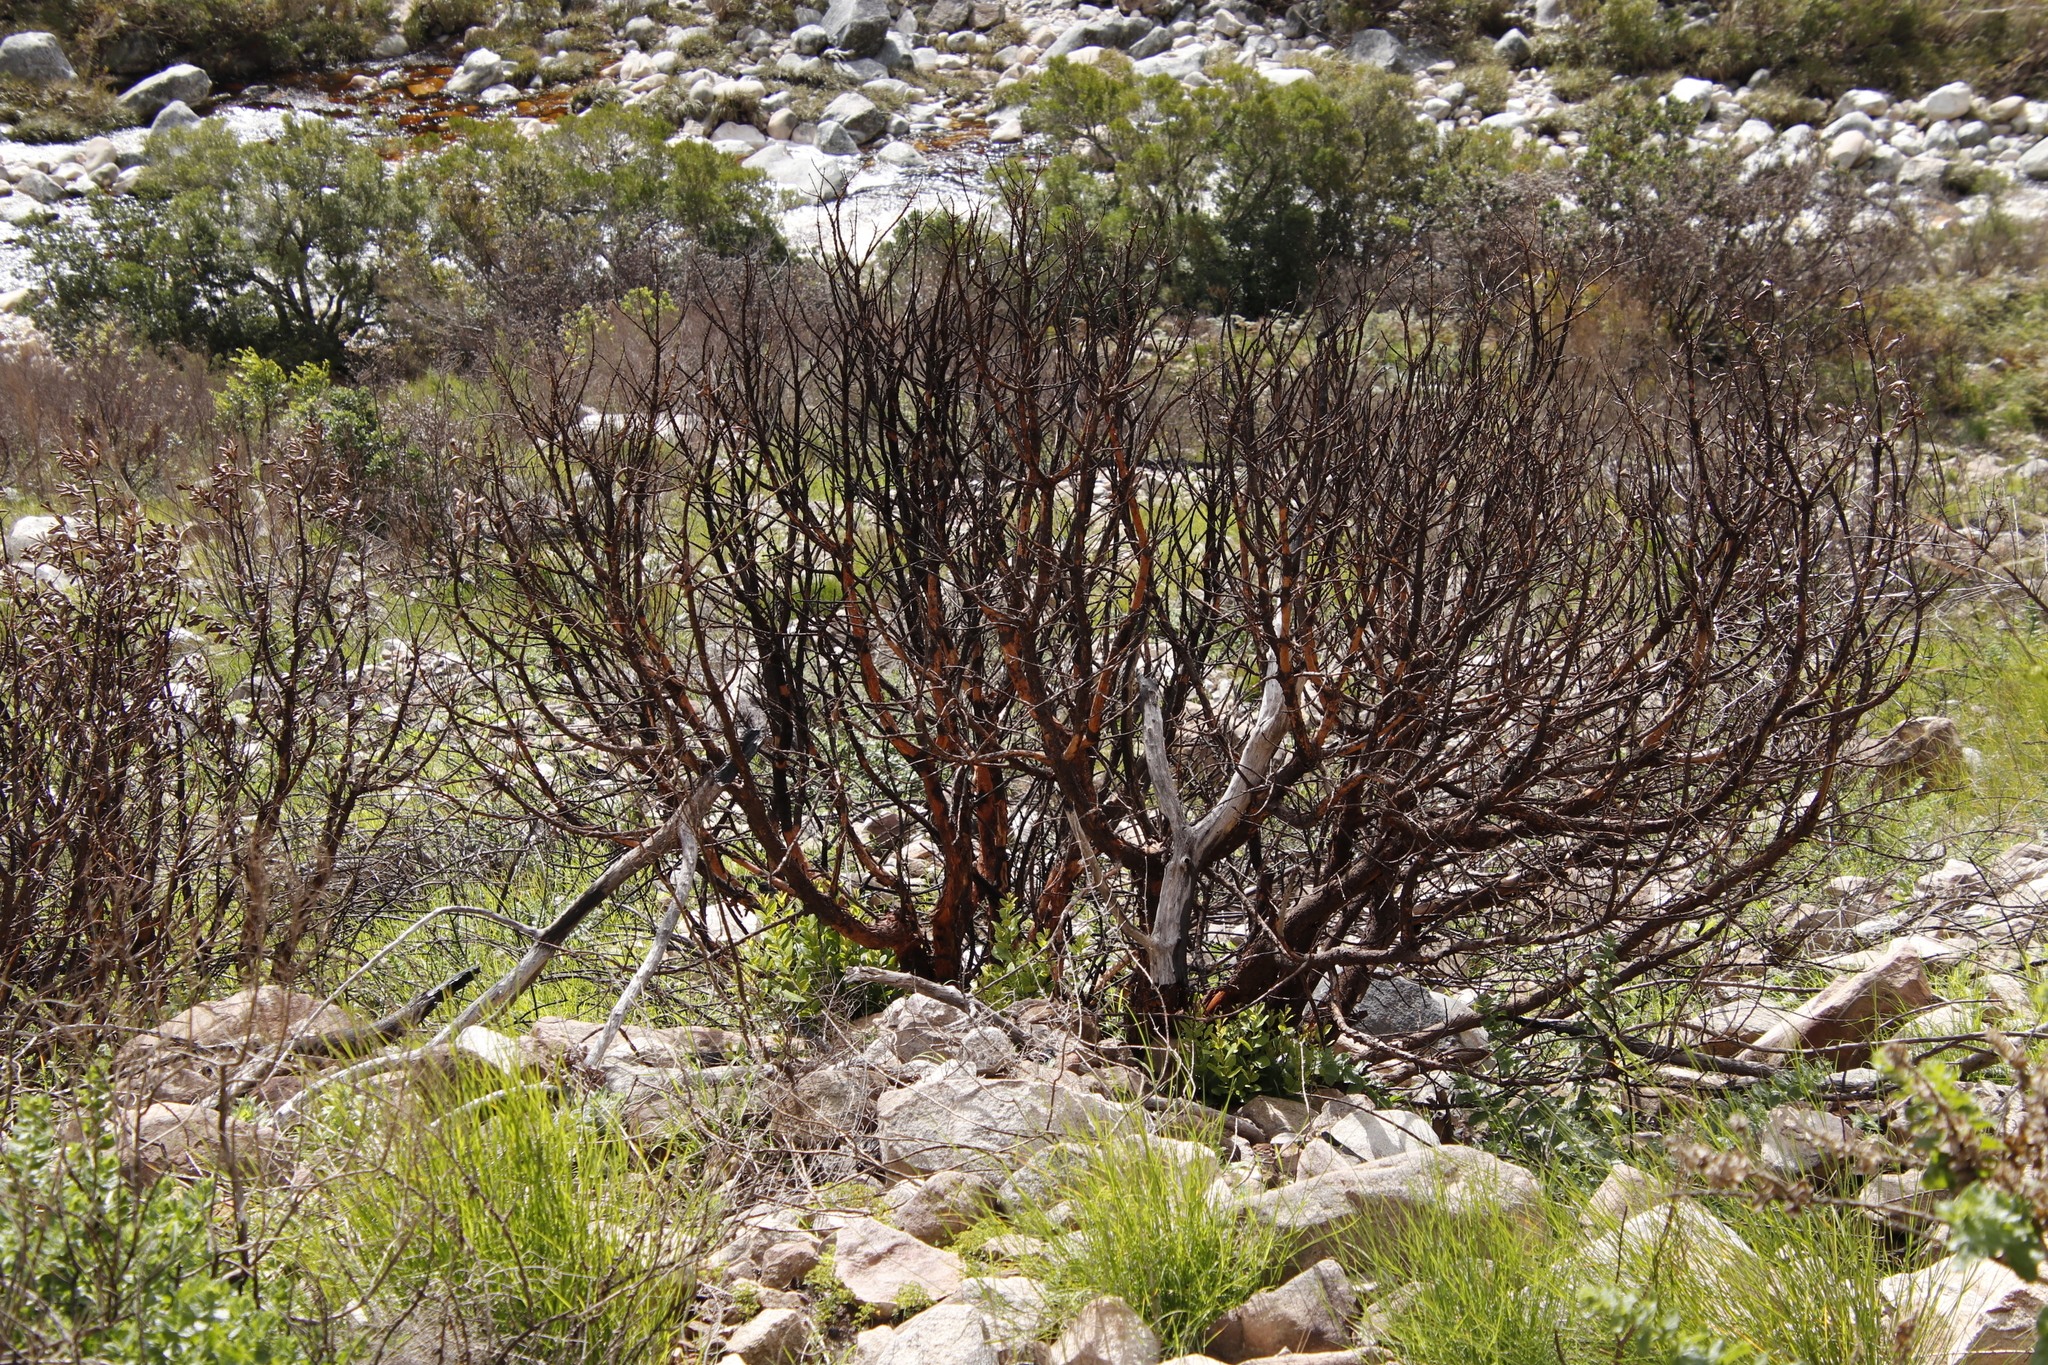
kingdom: Plantae
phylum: Tracheophyta
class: Magnoliopsida
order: Sapindales
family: Anacardiaceae
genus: Heeria
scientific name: Heeria argentea
